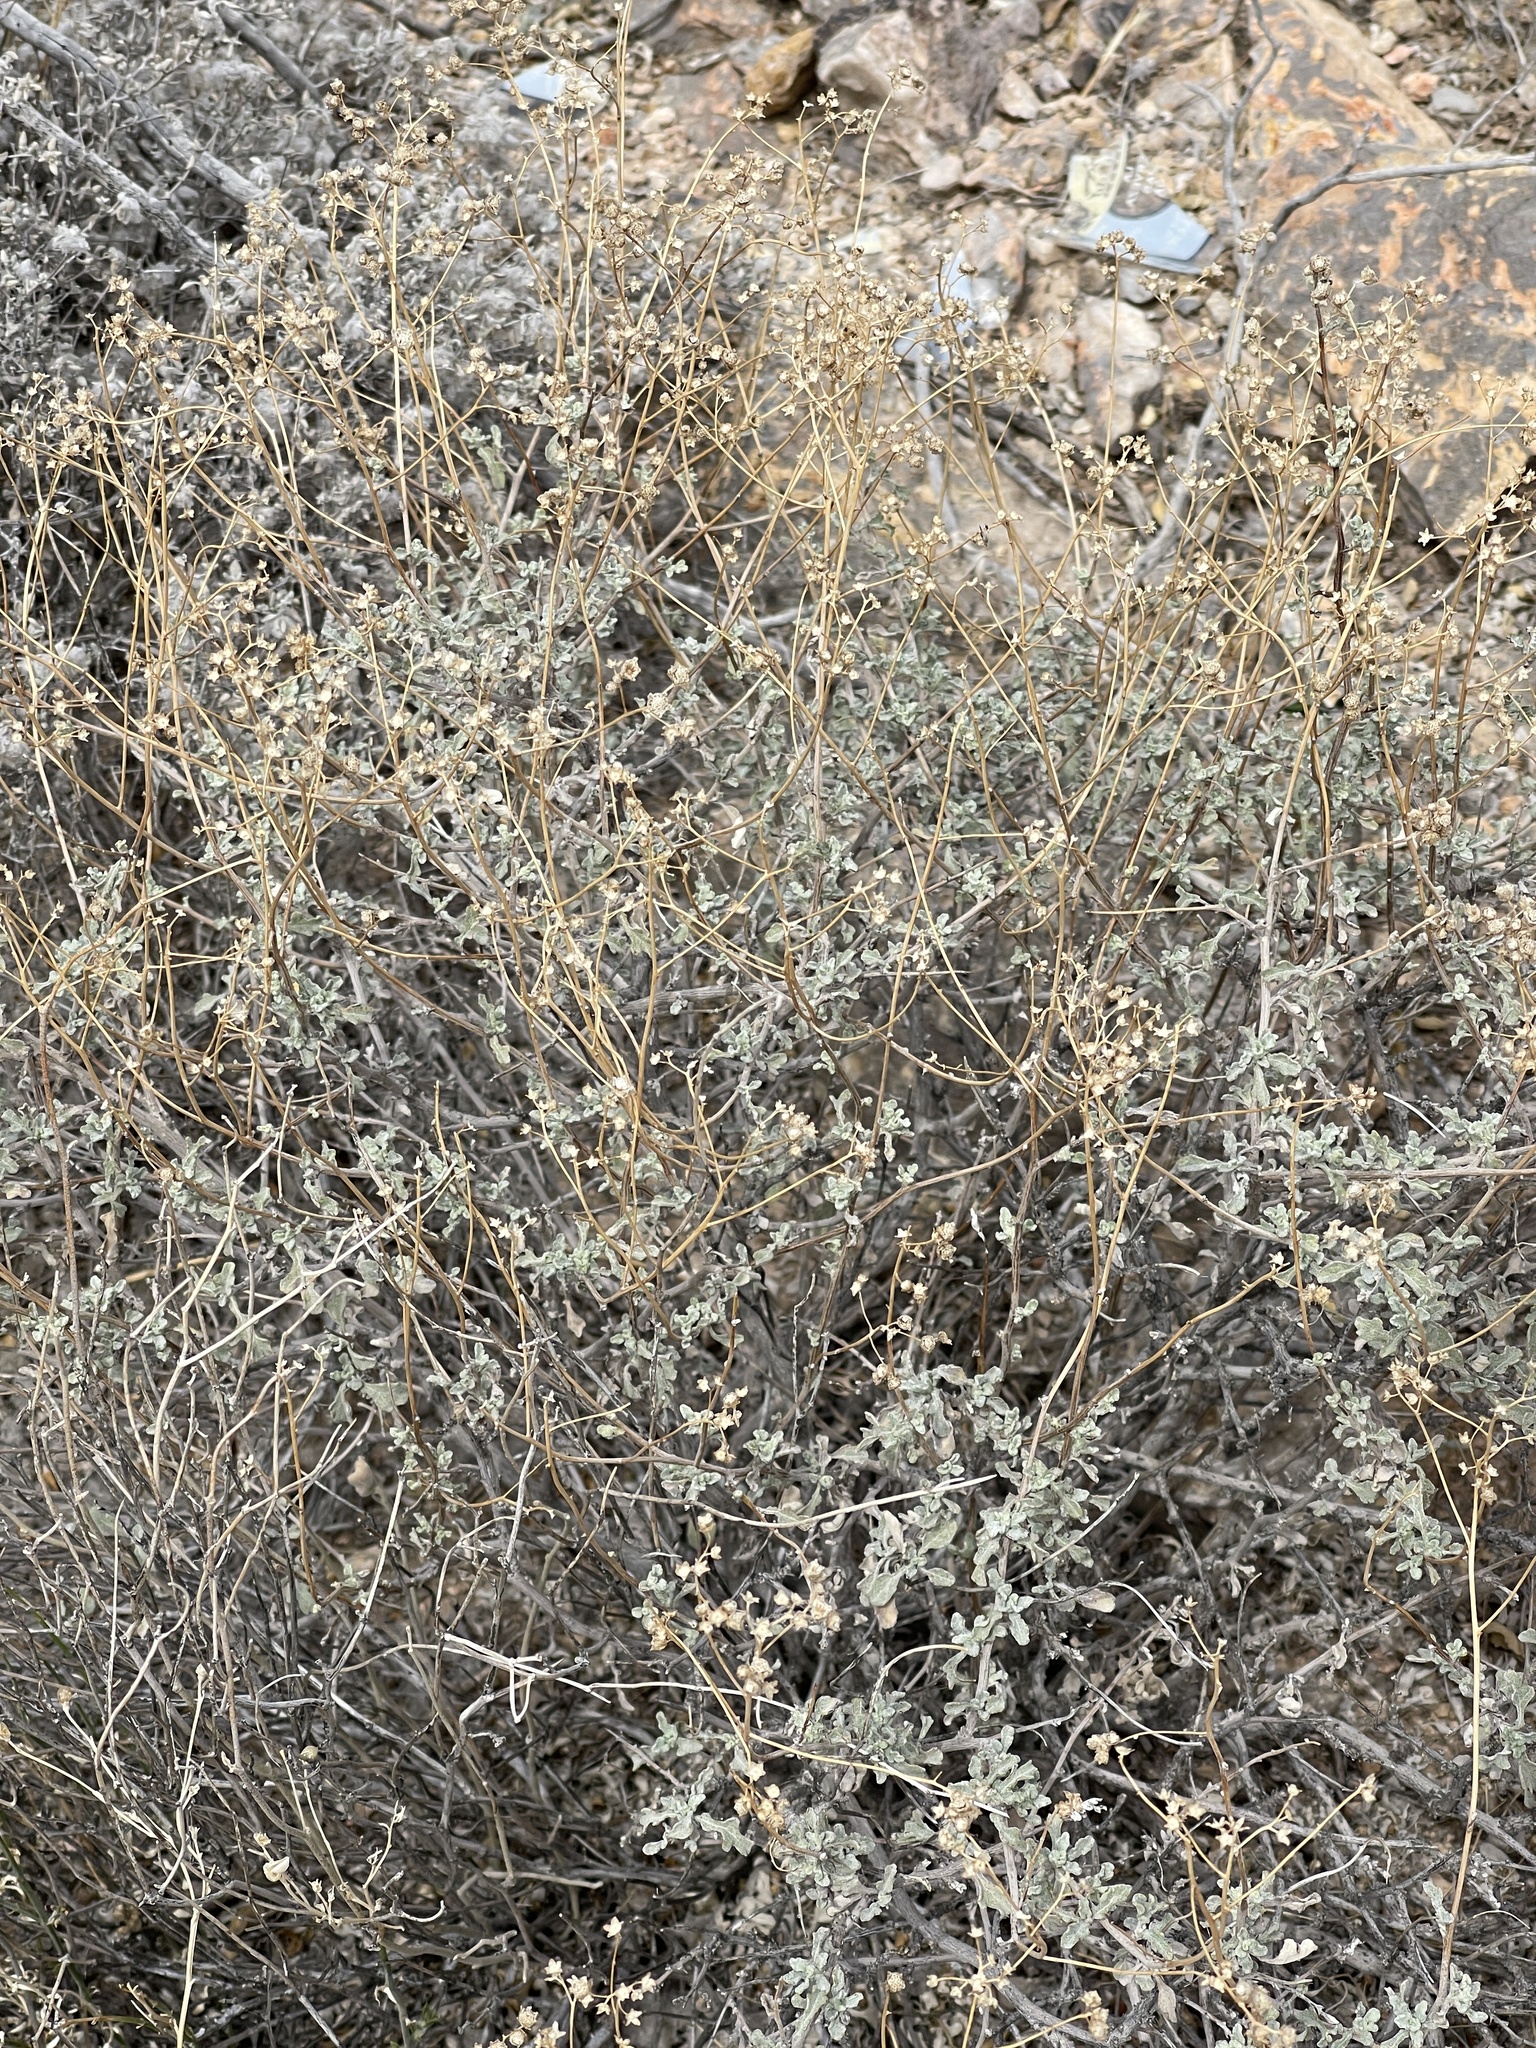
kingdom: Plantae
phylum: Tracheophyta
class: Magnoliopsida
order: Asterales
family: Asteraceae
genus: Parthenium
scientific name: Parthenium incanum
